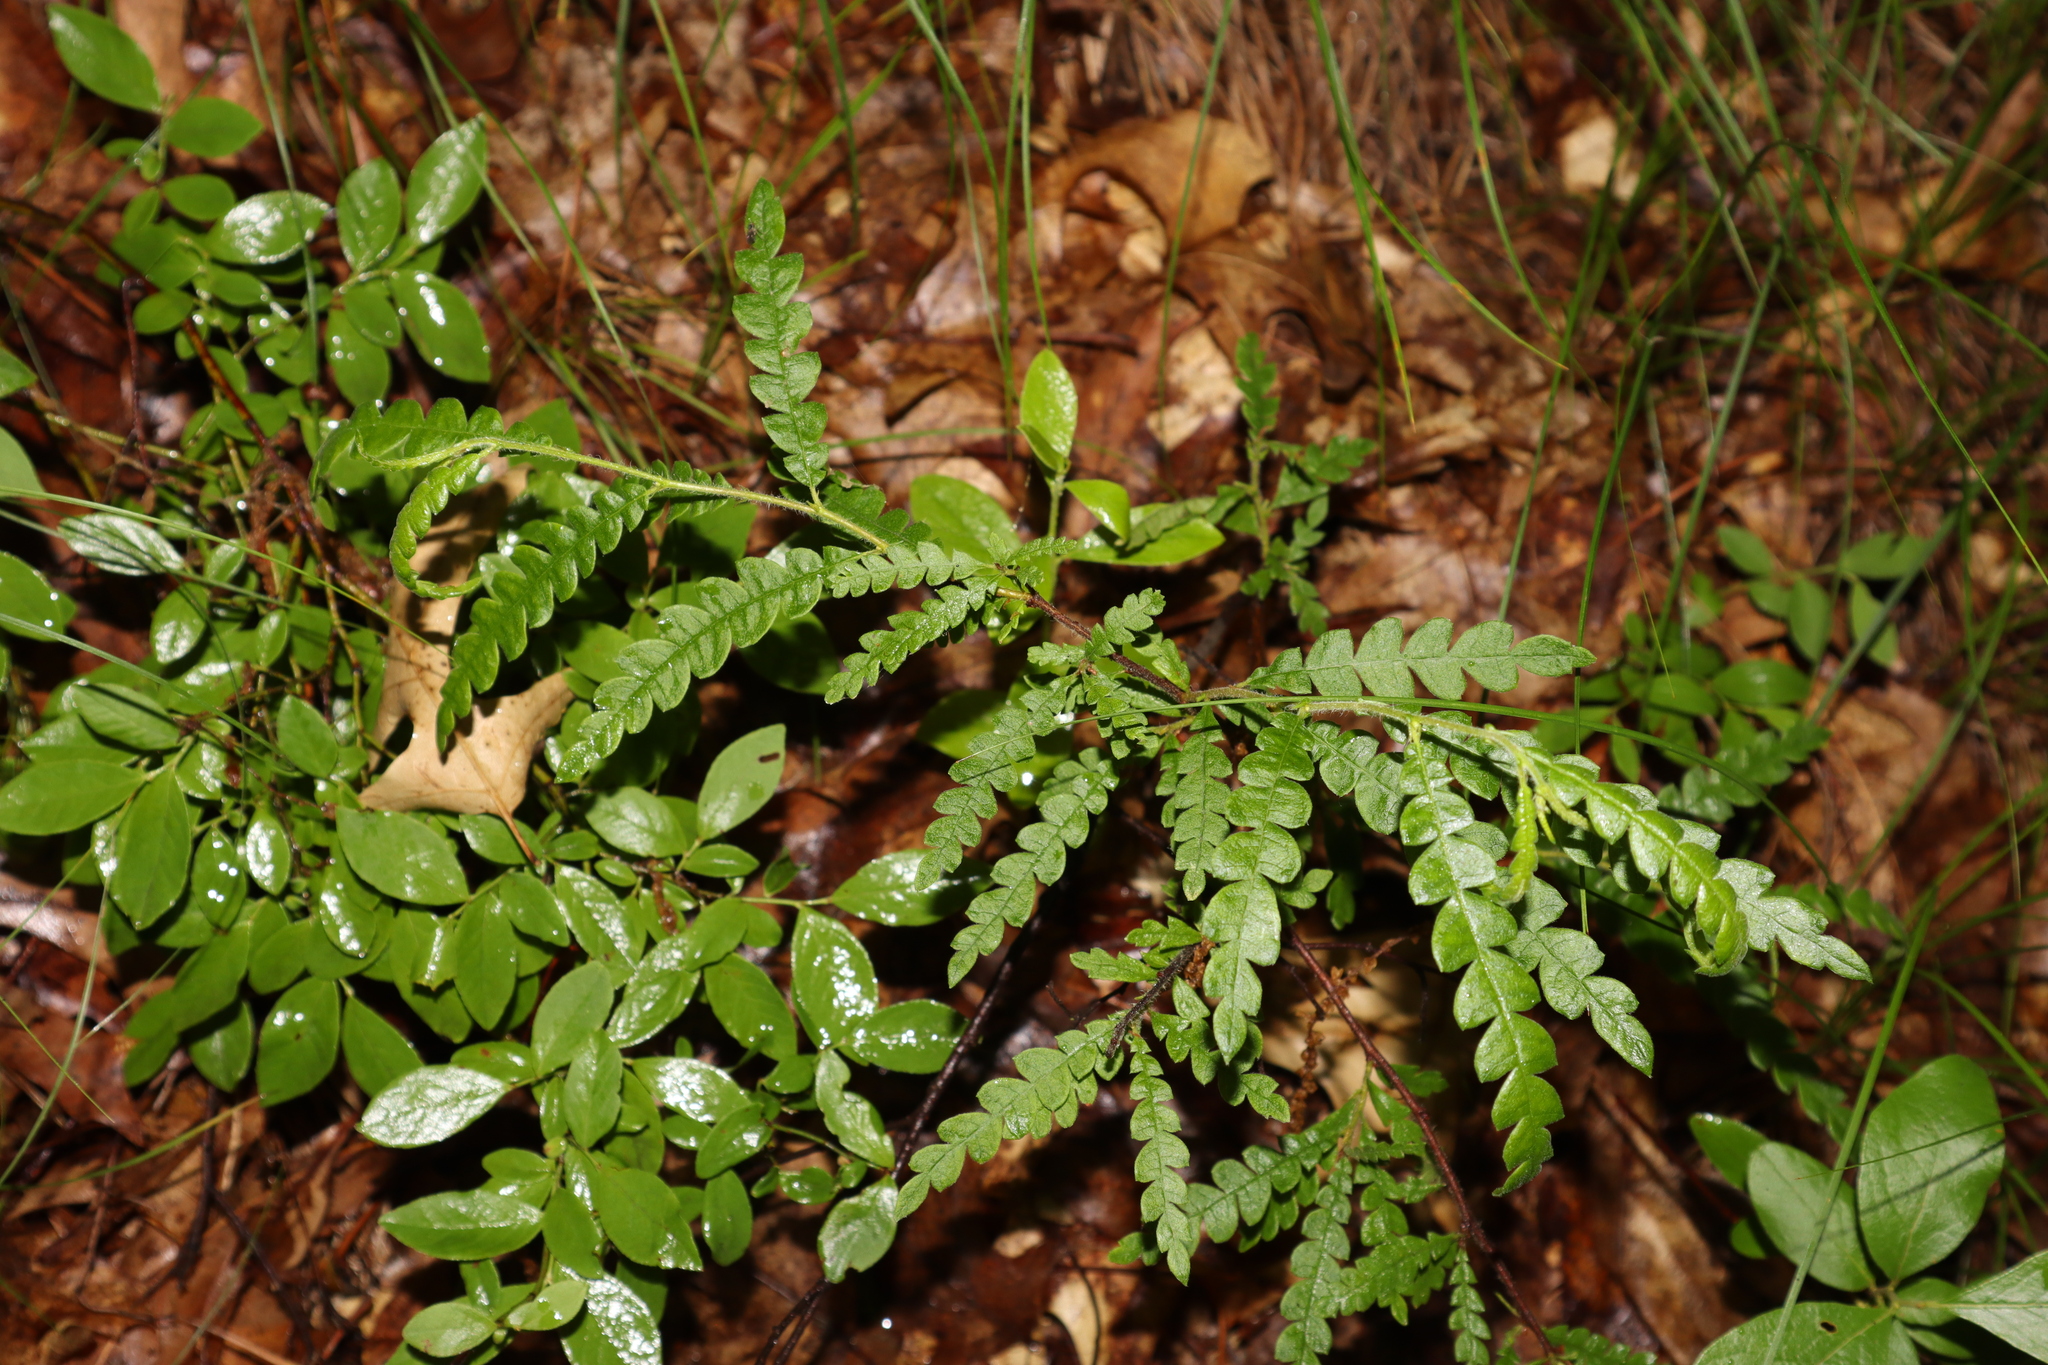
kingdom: Plantae
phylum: Tracheophyta
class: Magnoliopsida
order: Fagales
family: Myricaceae
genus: Comptonia
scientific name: Comptonia peregrina
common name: Sweet-fern
